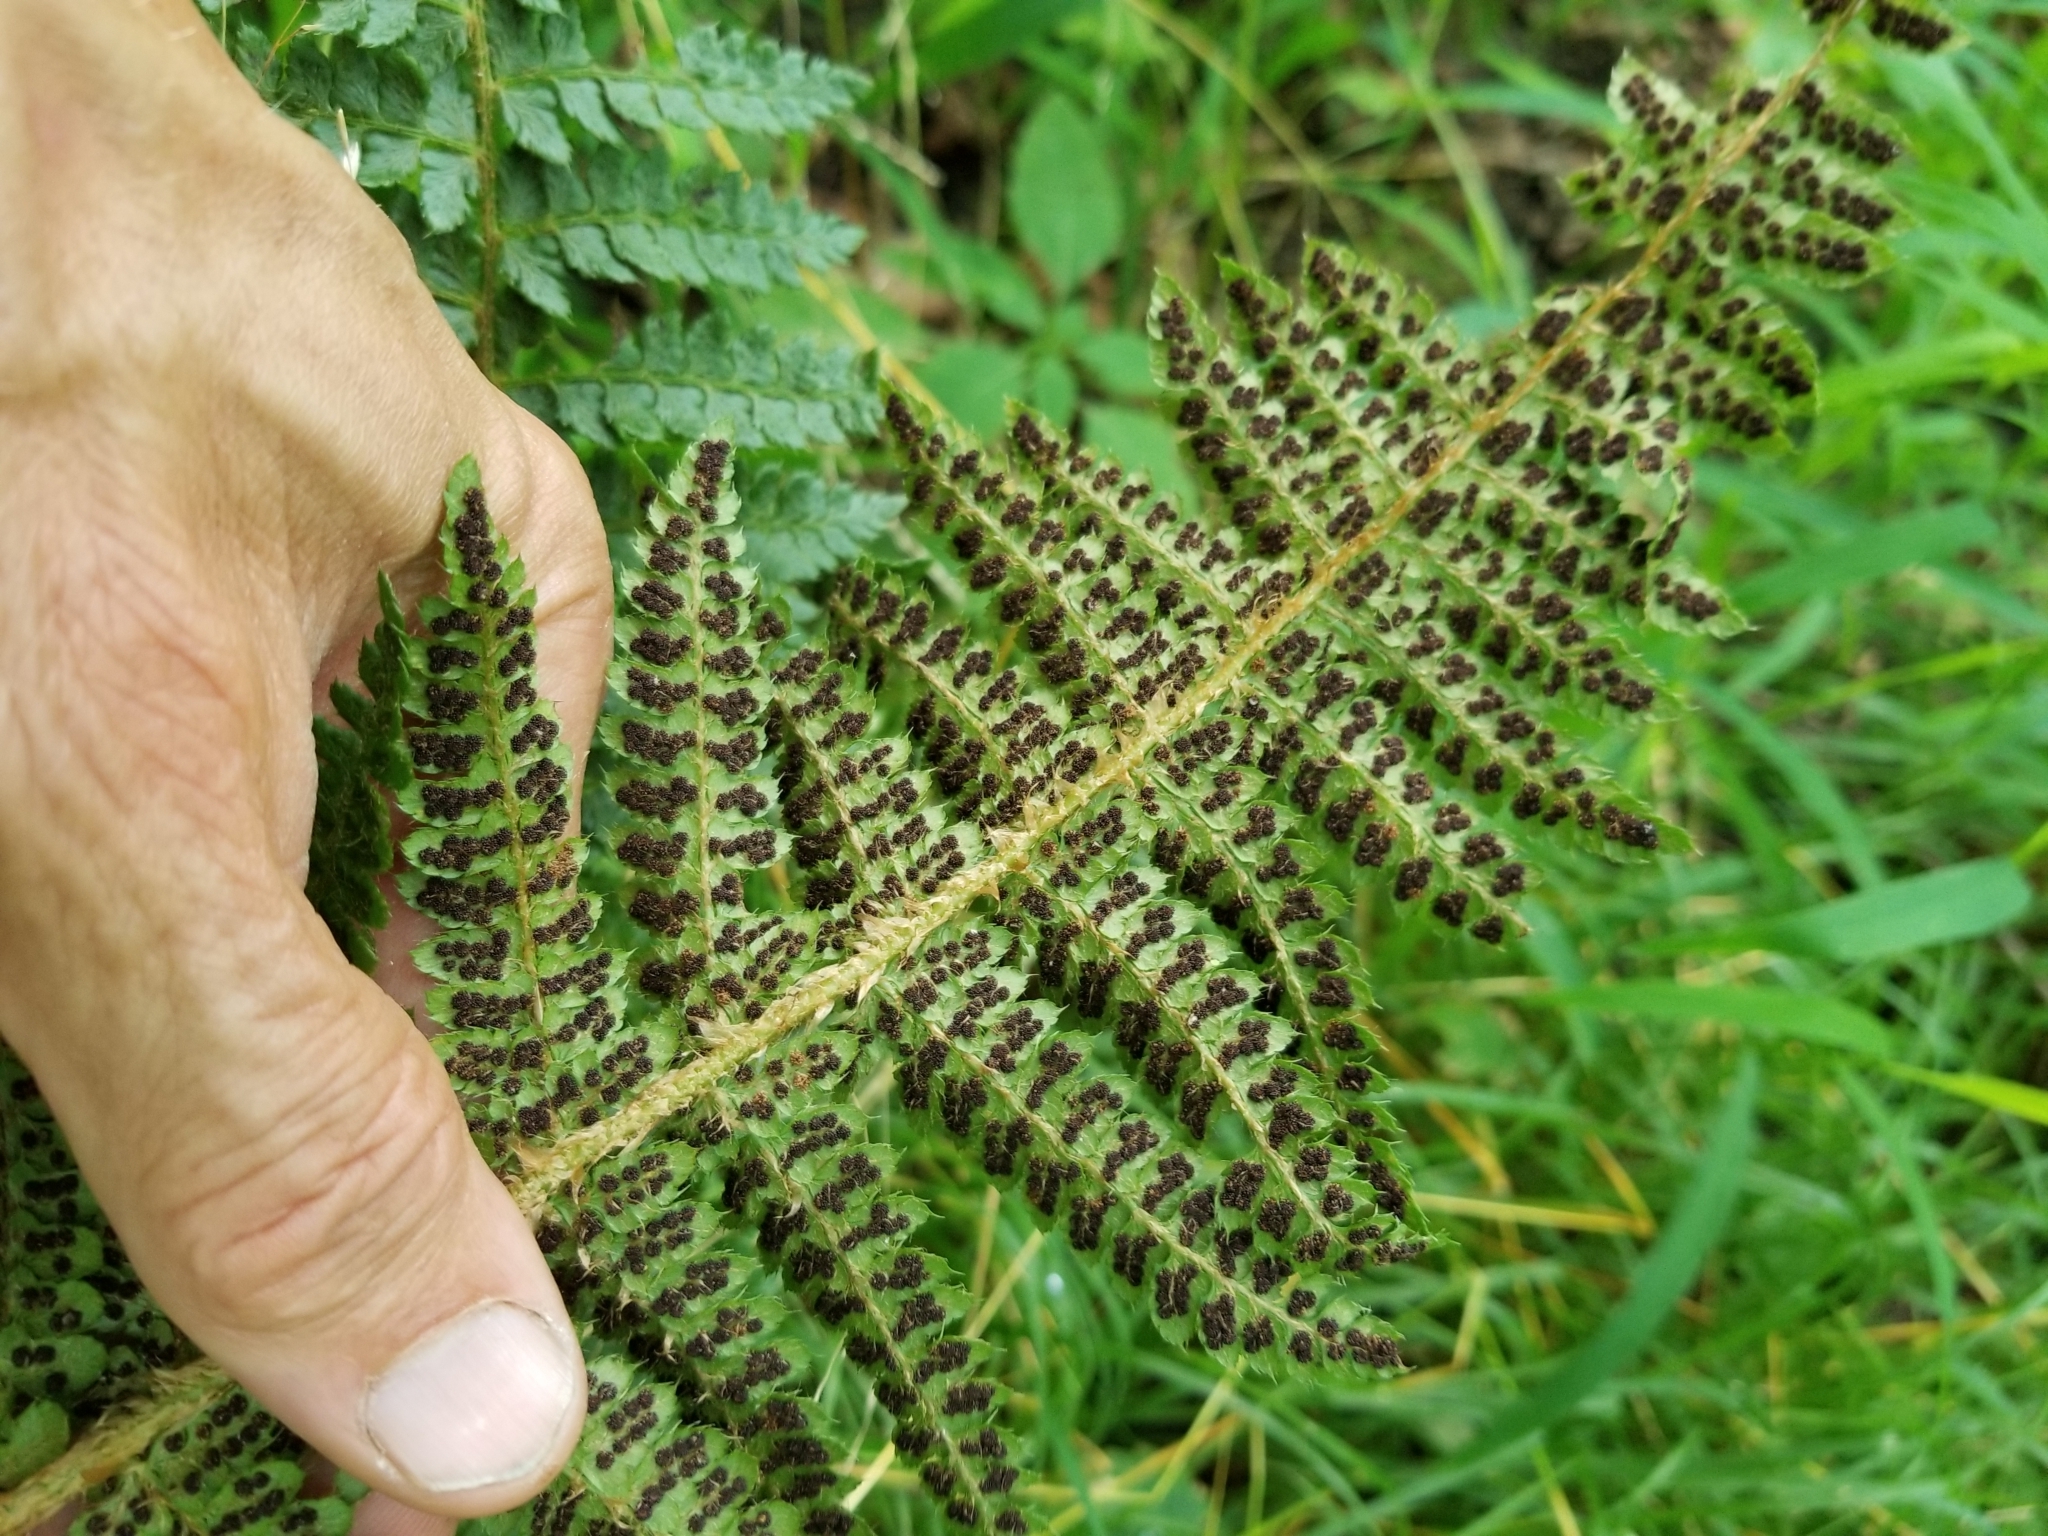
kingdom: Plantae
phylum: Tracheophyta
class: Polypodiopsida
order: Polypodiales
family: Dryopteridaceae
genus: Polystichum
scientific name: Polystichum braunii
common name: Braun's holly fern
